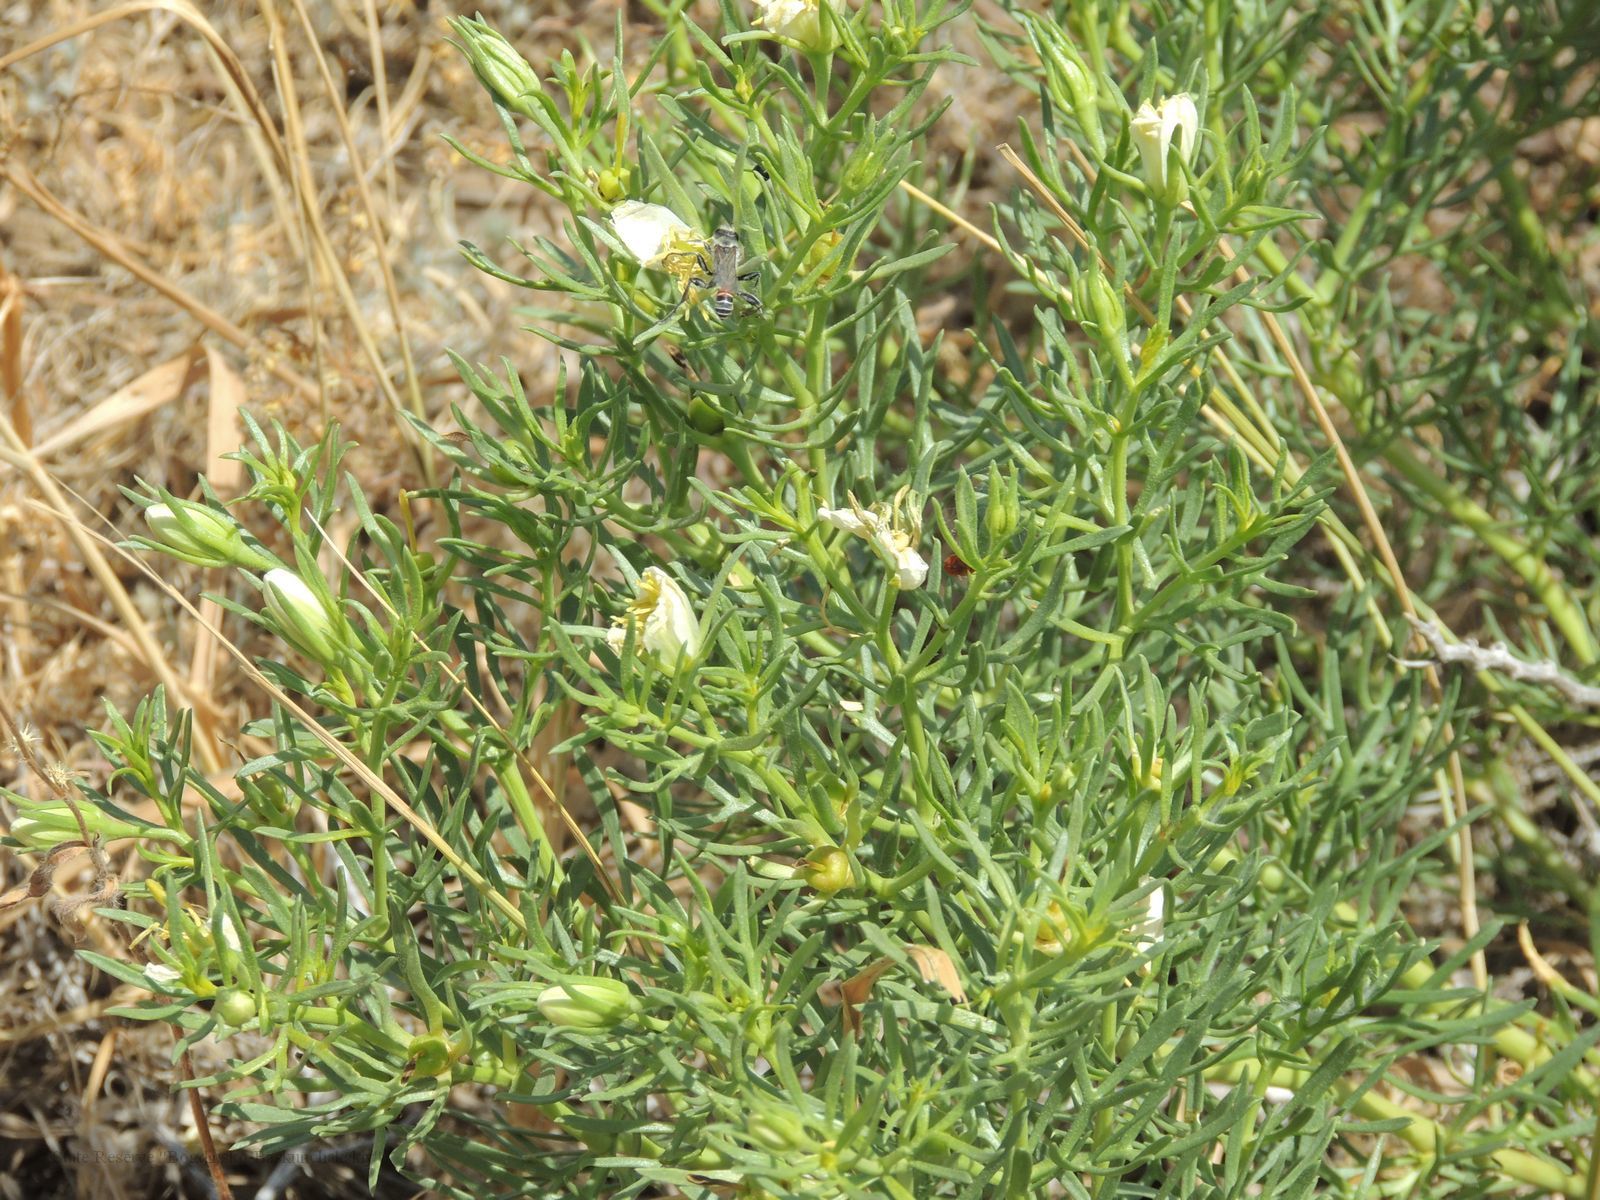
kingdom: Plantae
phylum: Tracheophyta
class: Magnoliopsida
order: Sapindales
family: Tetradiclidaceae
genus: Peganum
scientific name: Peganum harmala
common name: Harmal peganum
